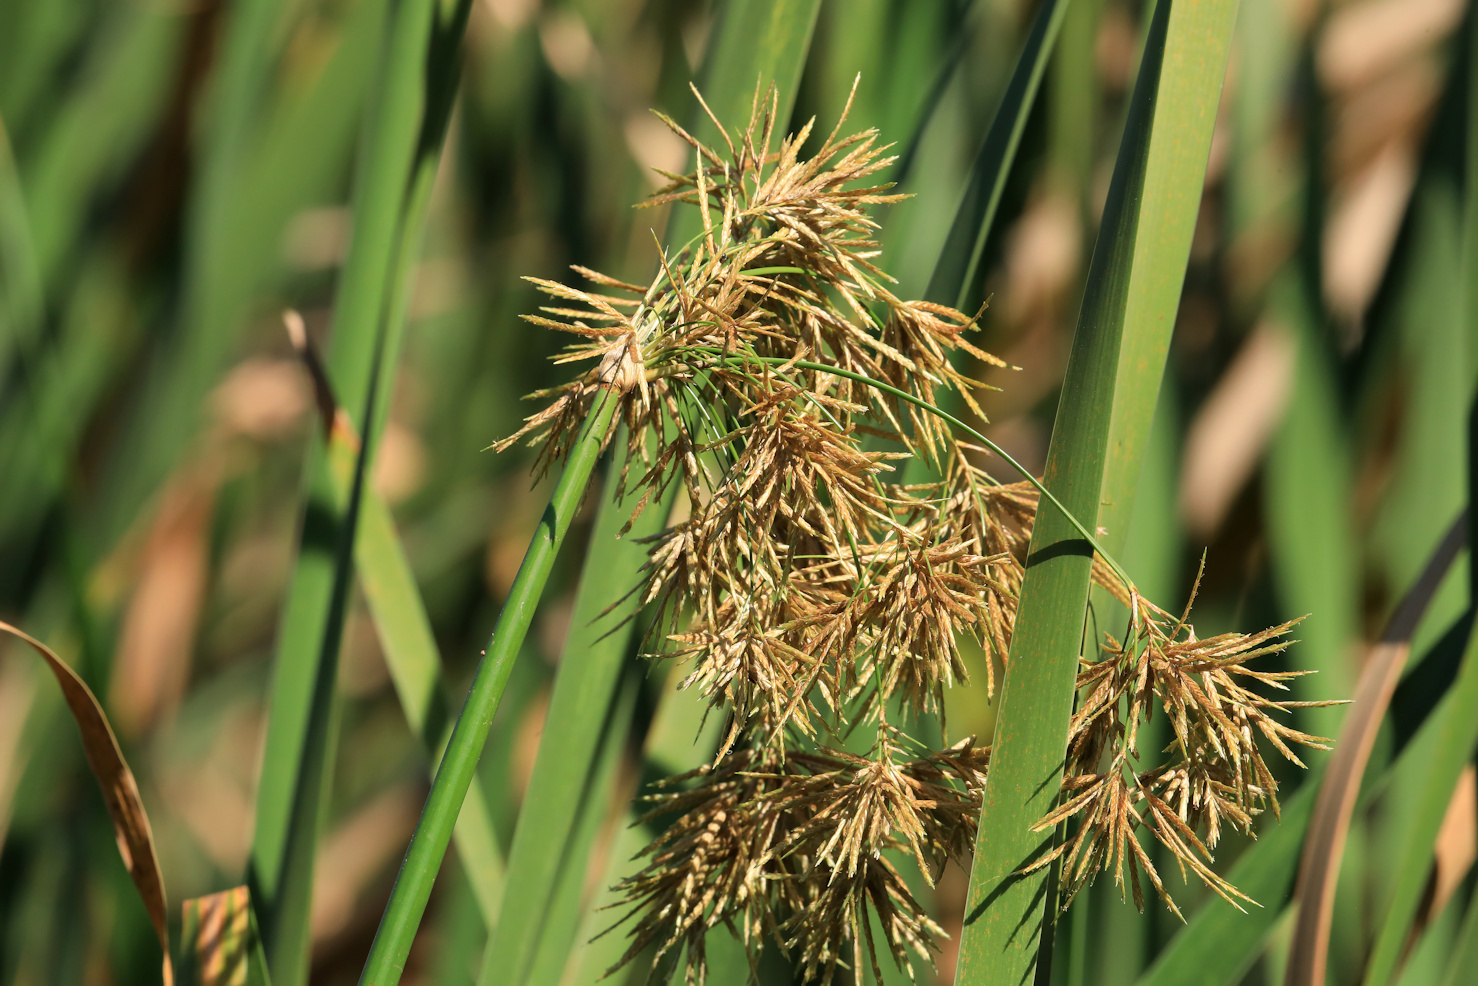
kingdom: Plantae
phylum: Tracheophyta
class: Liliopsida
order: Poales
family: Cyperaceae
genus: Cyperus
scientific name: Cyperus articulatus
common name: Jointed flatsedge
